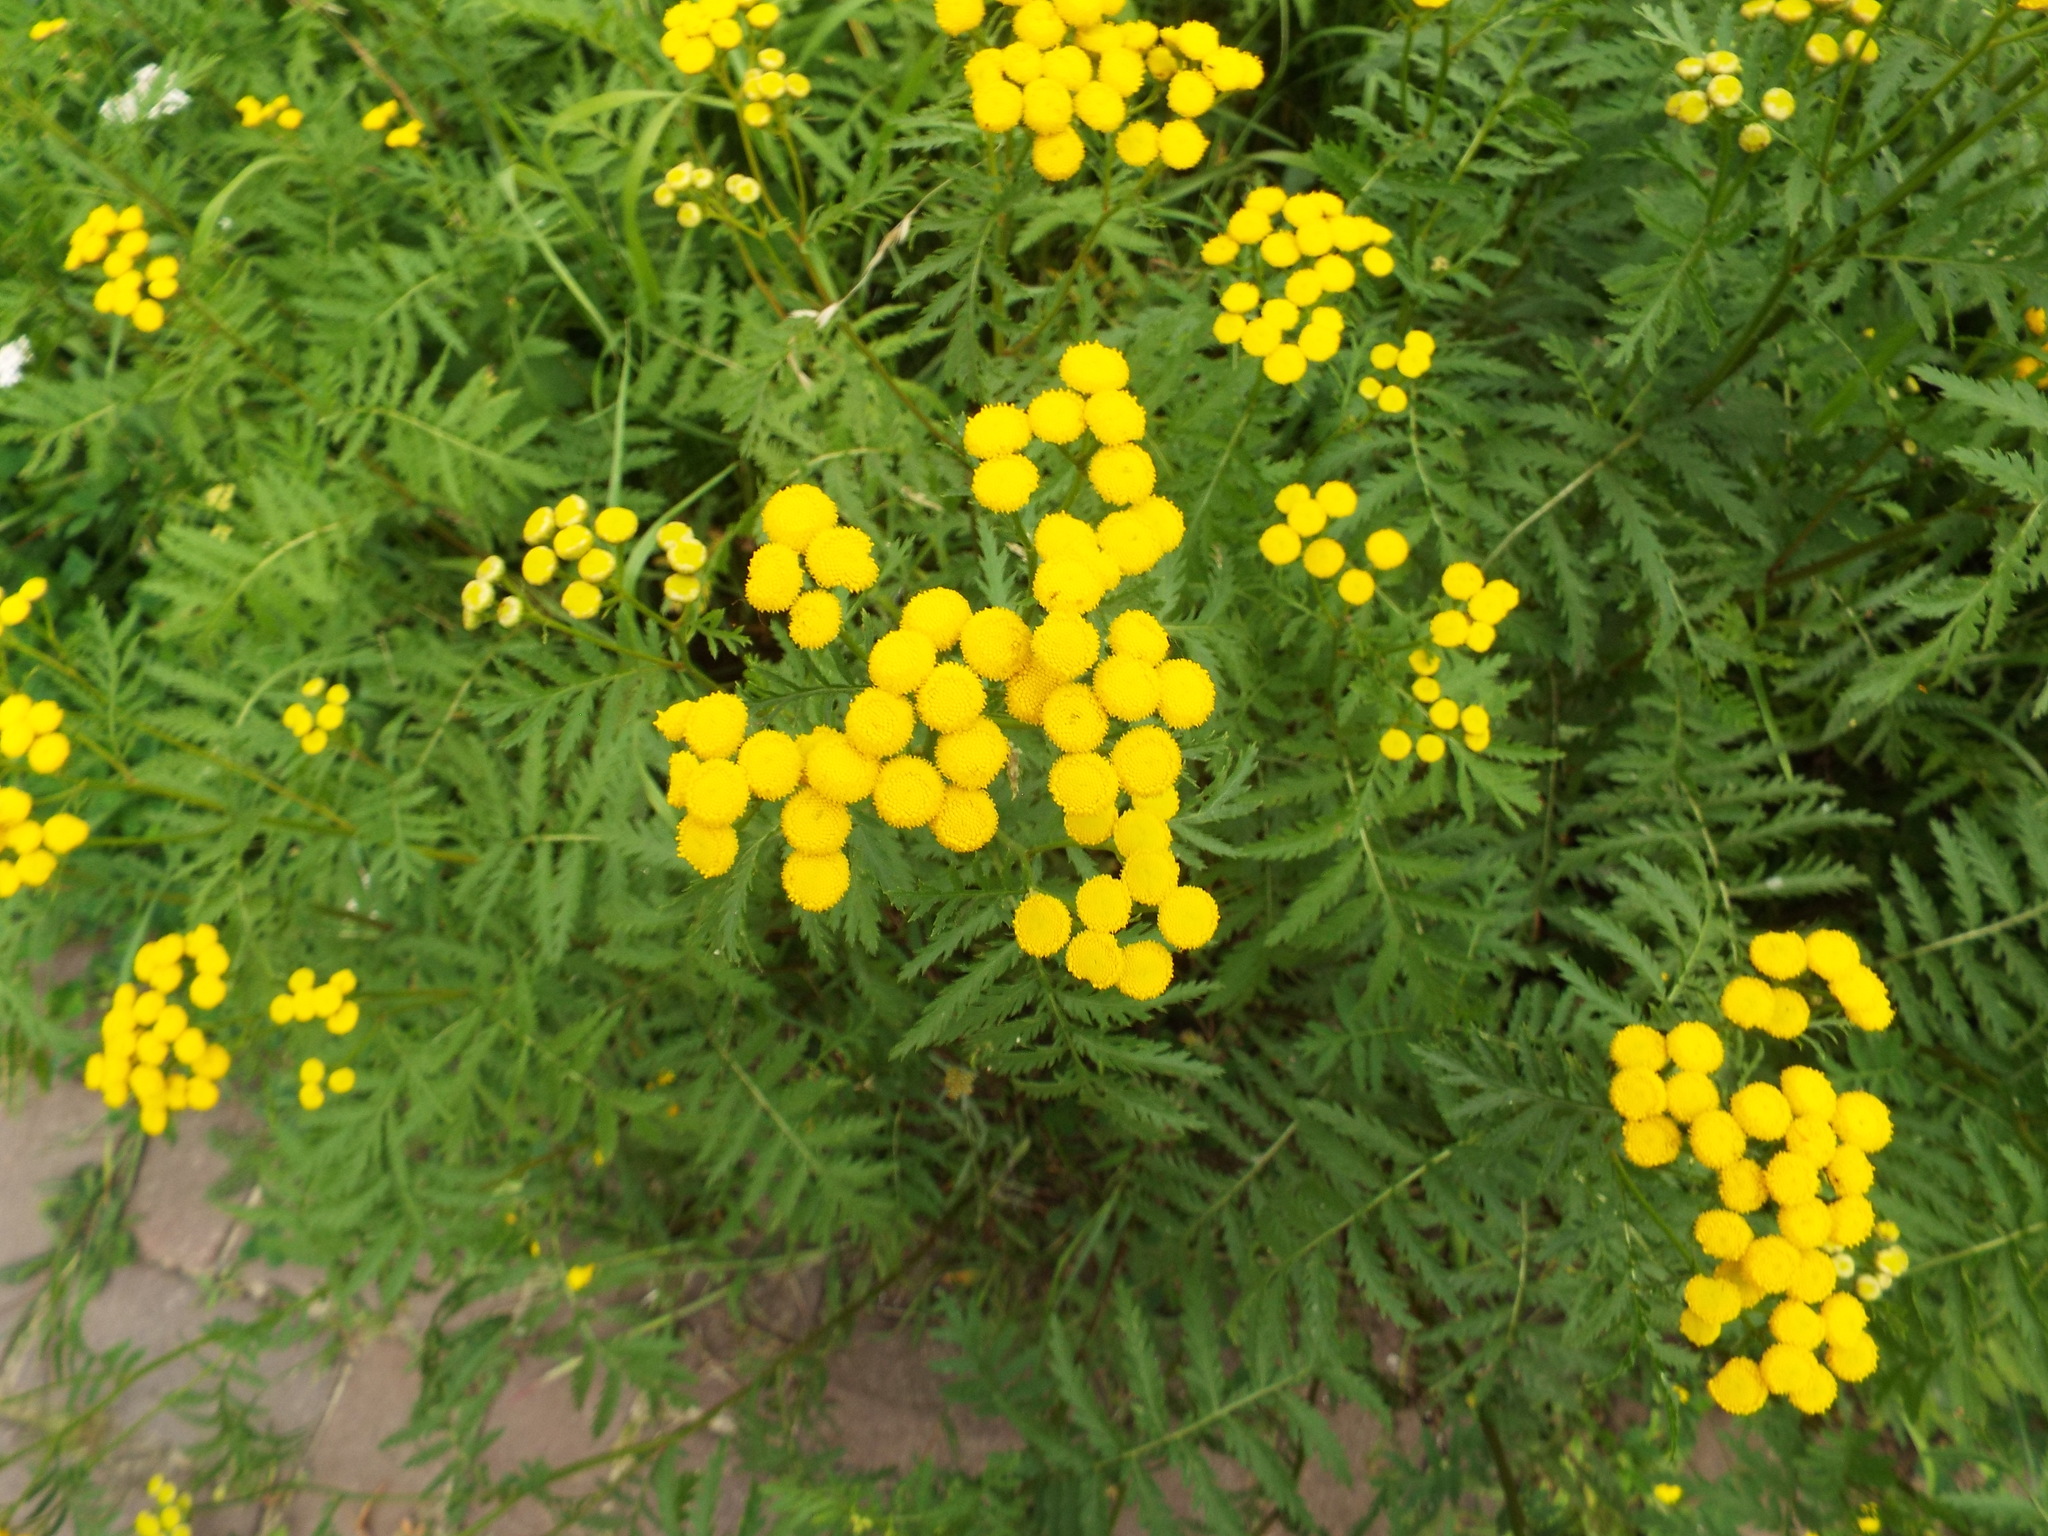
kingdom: Plantae
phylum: Tracheophyta
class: Magnoliopsida
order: Asterales
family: Asteraceae
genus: Tanacetum
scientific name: Tanacetum vulgare
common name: Common tansy
